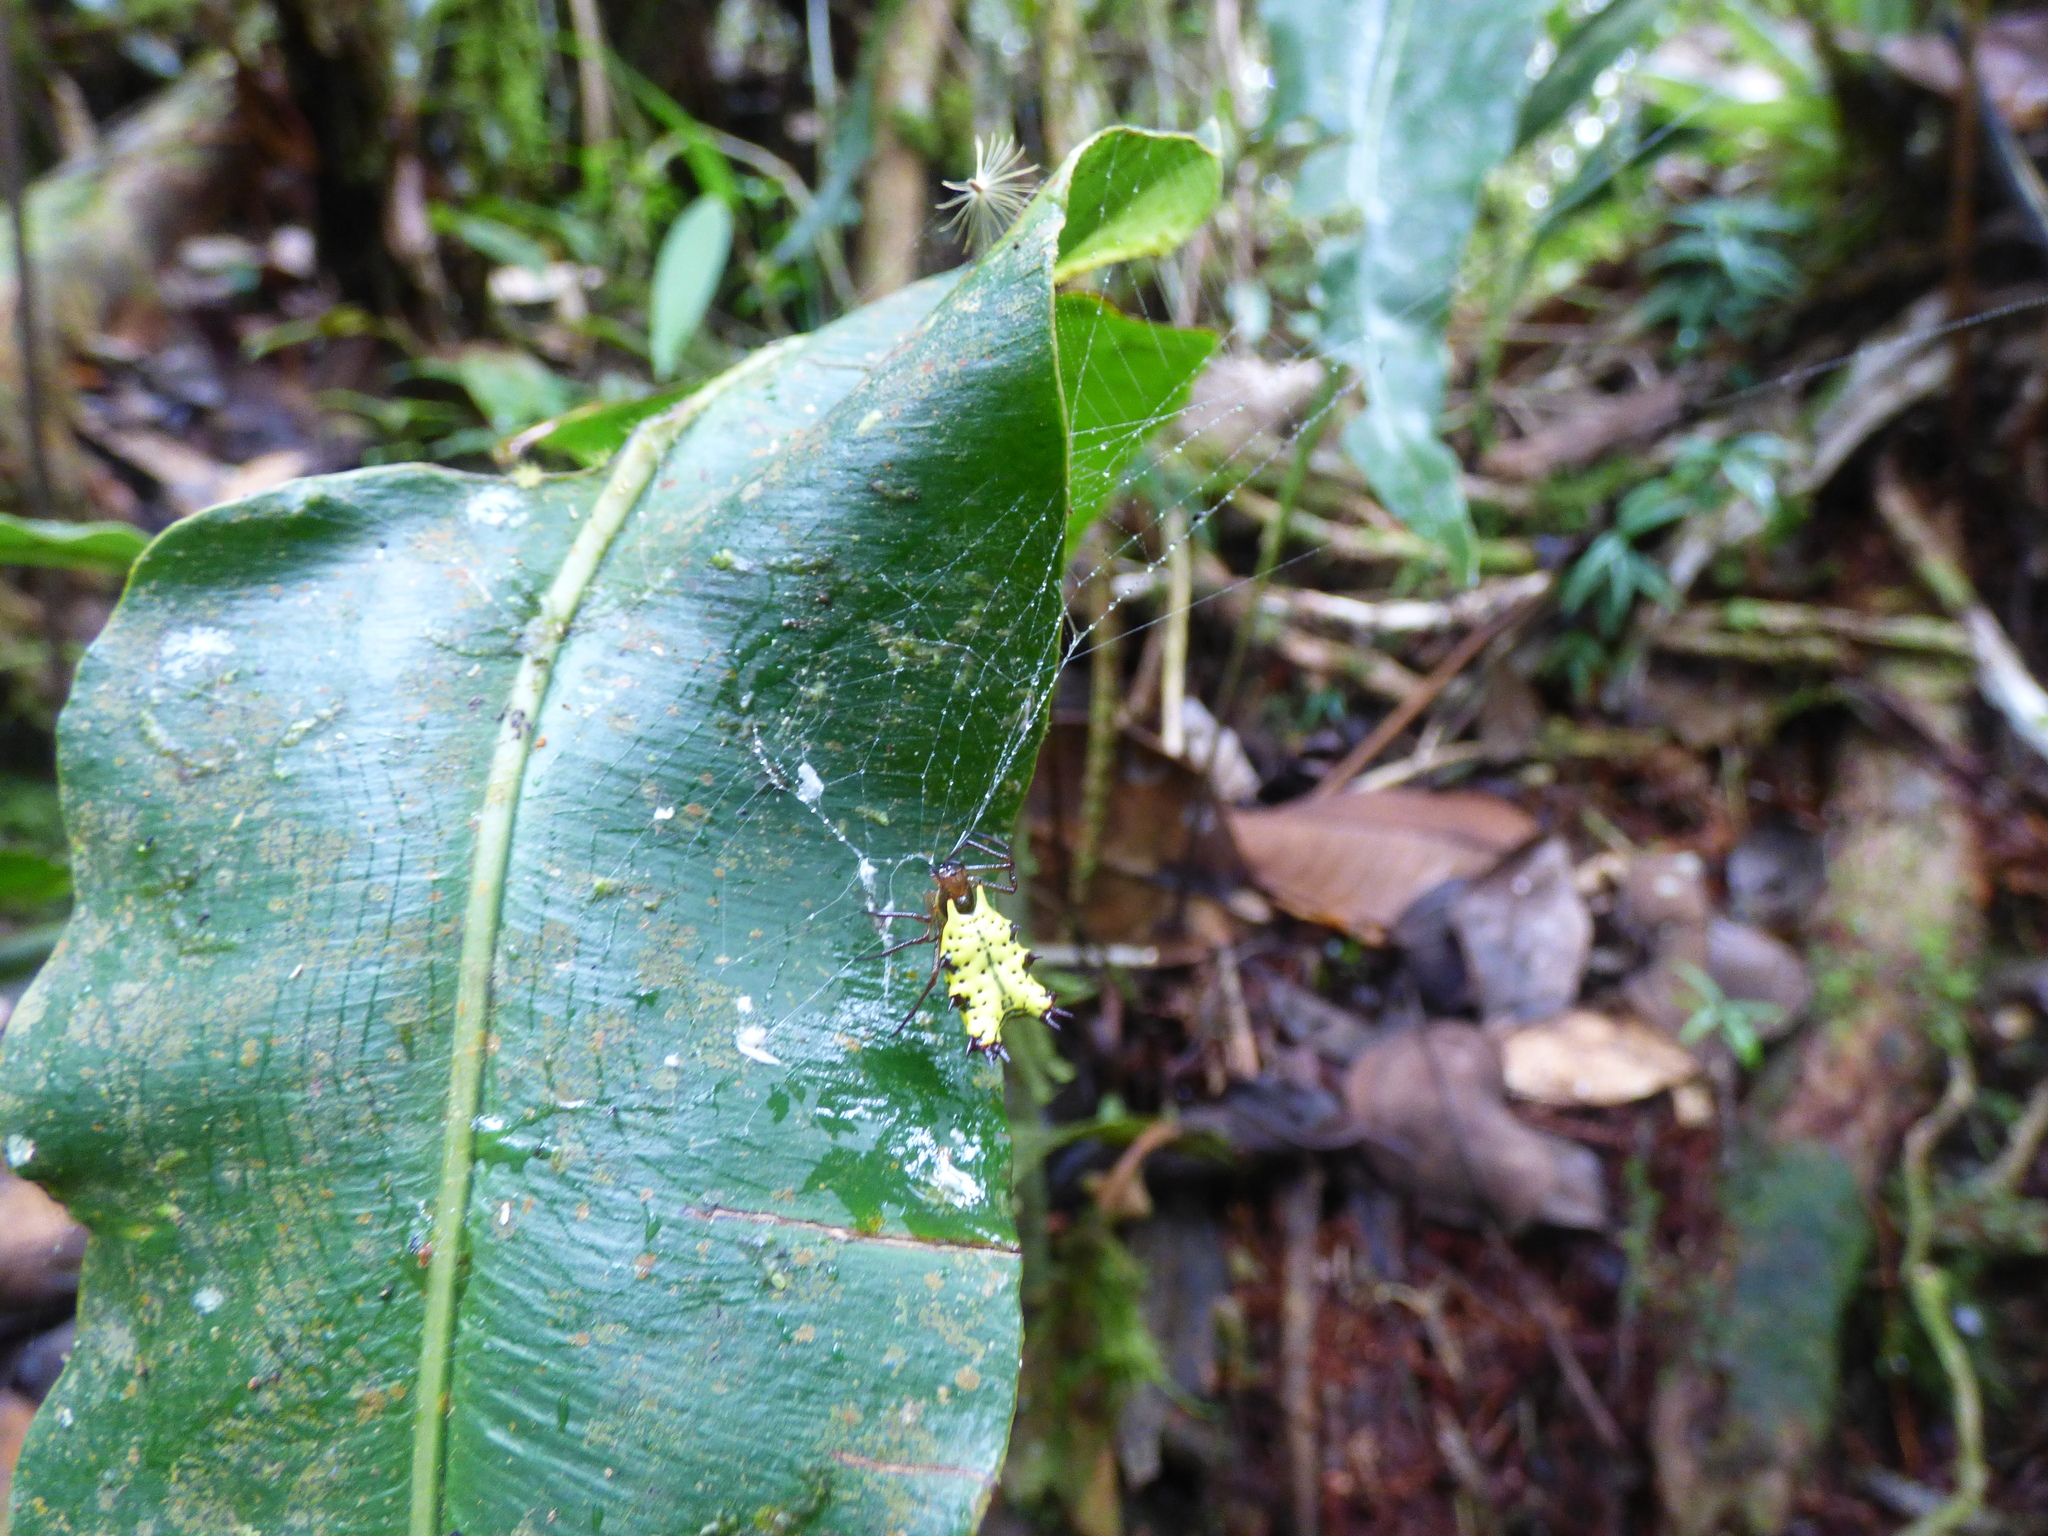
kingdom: Animalia
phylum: Arthropoda
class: Arachnida
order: Araneae
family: Araneidae
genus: Micrathena
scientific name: Micrathena decorata
